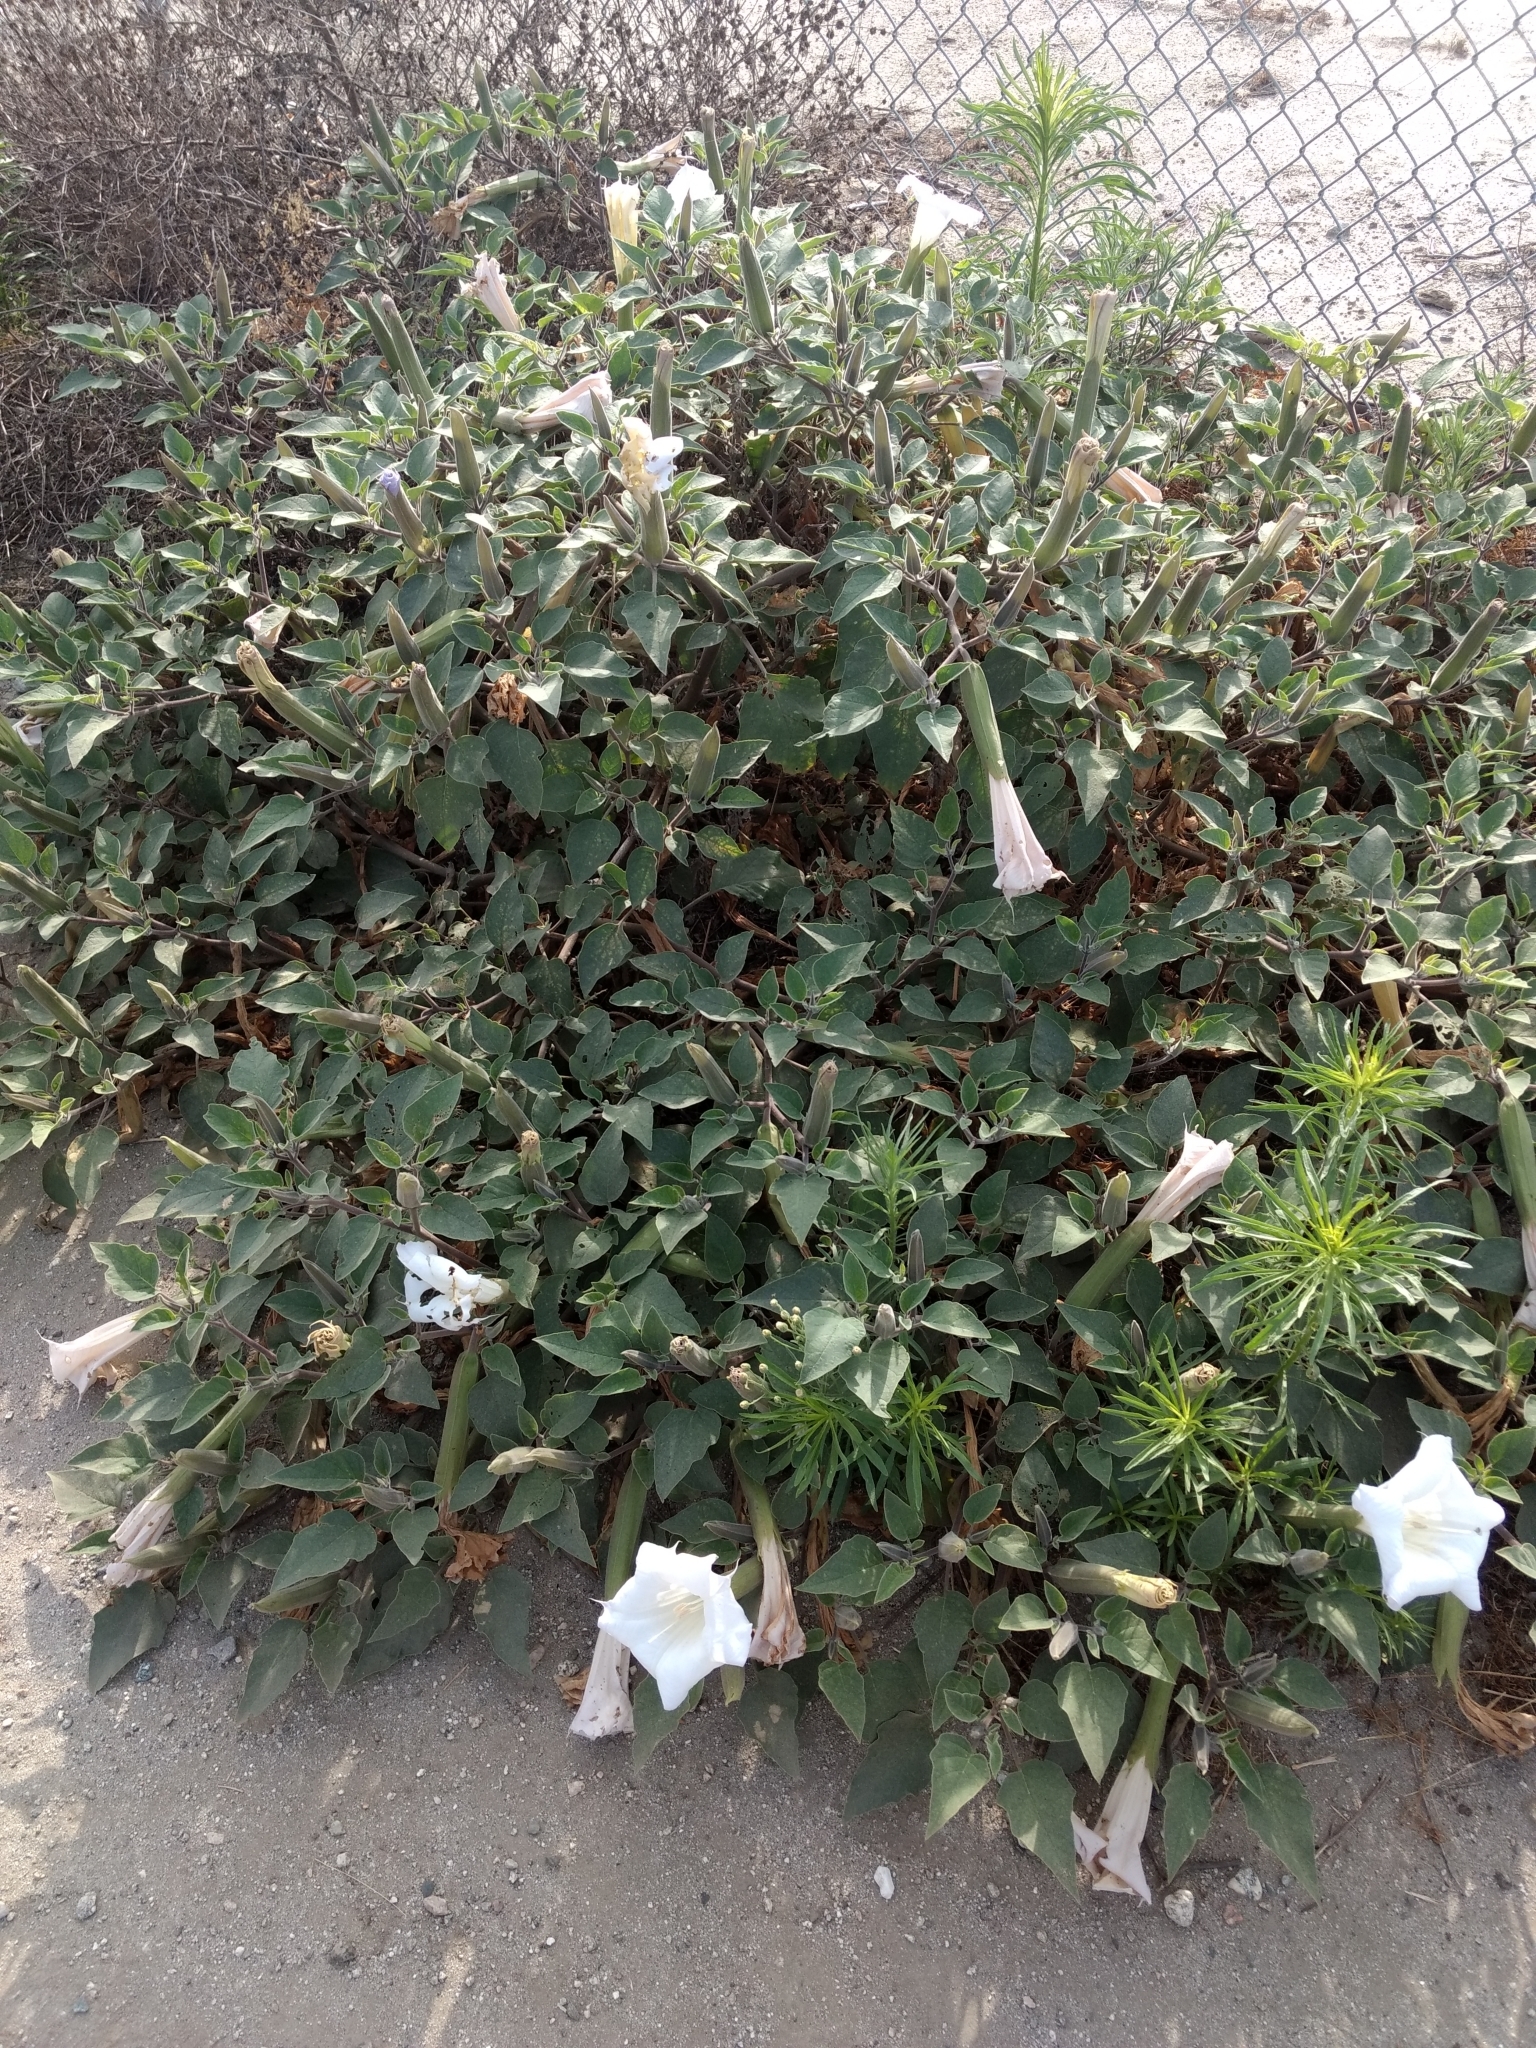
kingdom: Plantae
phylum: Tracheophyta
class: Magnoliopsida
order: Solanales
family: Solanaceae
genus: Datura
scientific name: Datura wrightii
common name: Sacred thorn-apple
